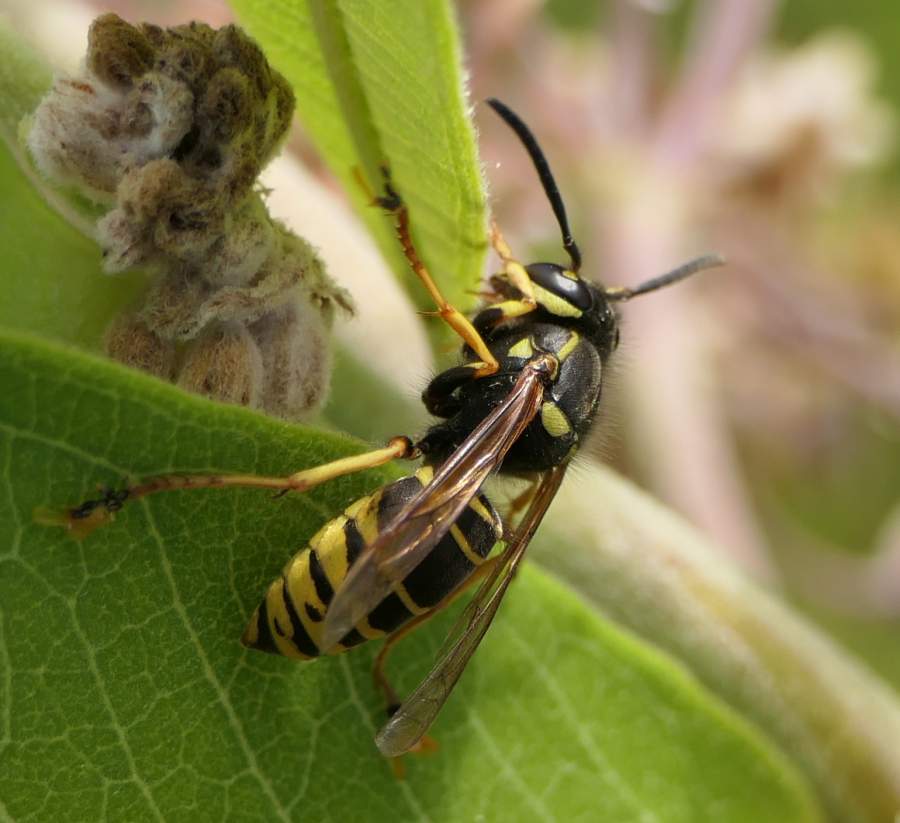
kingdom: Animalia
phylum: Arthropoda
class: Insecta
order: Hymenoptera
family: Vespidae
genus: Vespula
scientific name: Vespula vidua
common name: Widow yellowjacket
